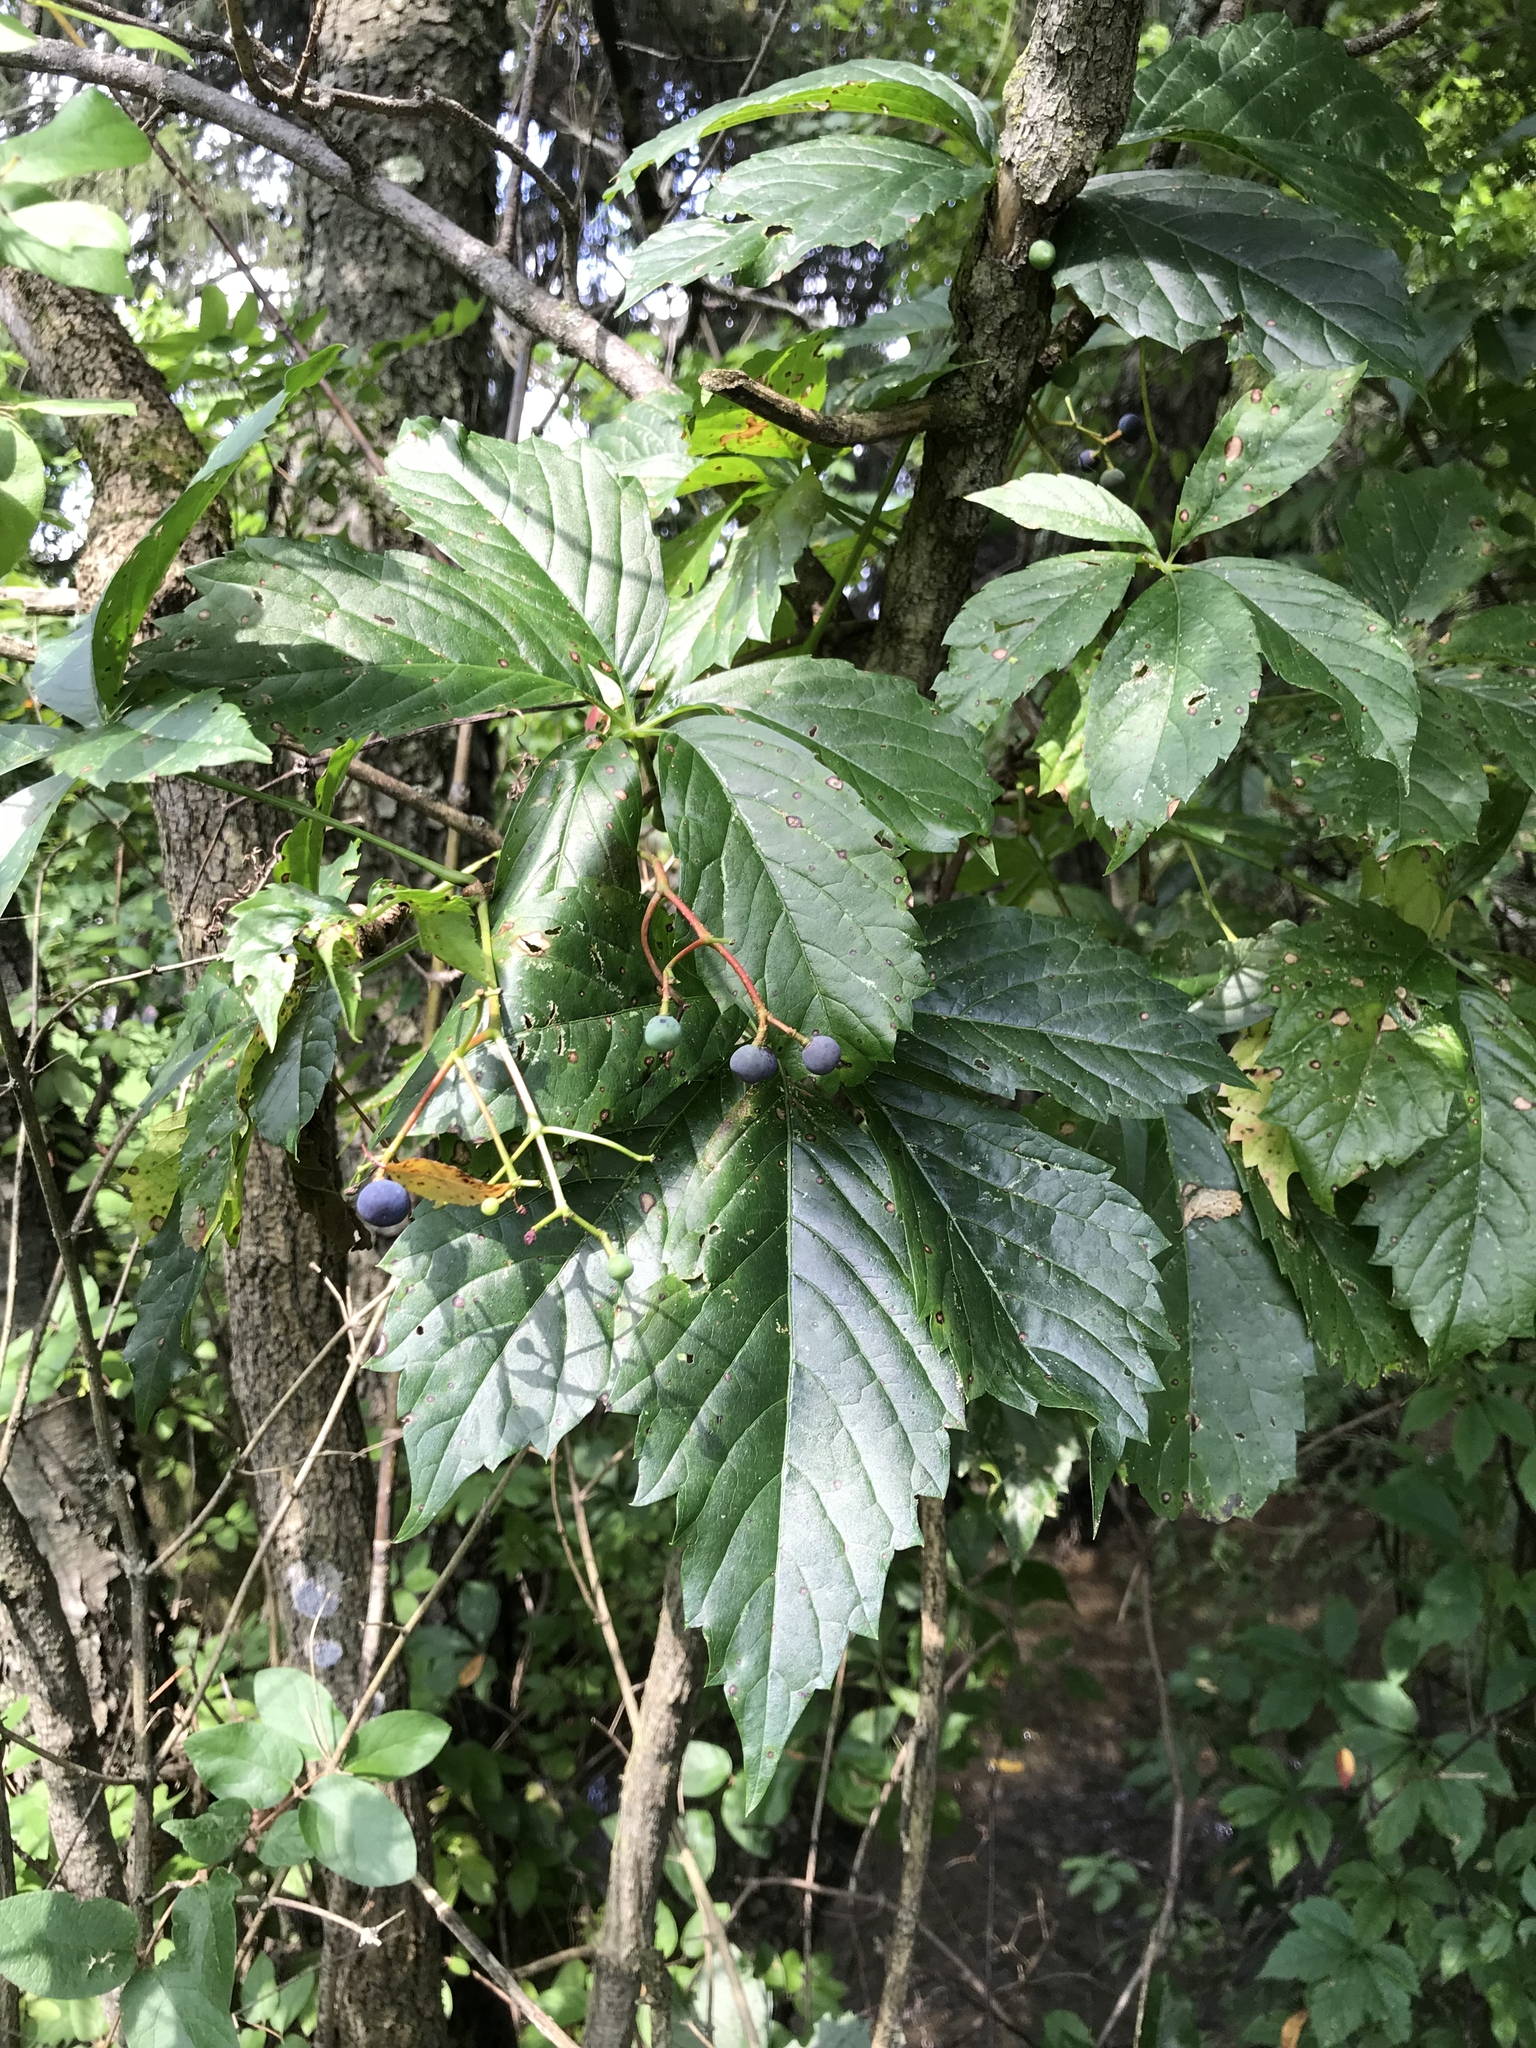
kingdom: Plantae
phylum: Tracheophyta
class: Magnoliopsida
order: Vitales
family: Vitaceae
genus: Parthenocissus
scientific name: Parthenocissus inserta
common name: False virginia-creeper
